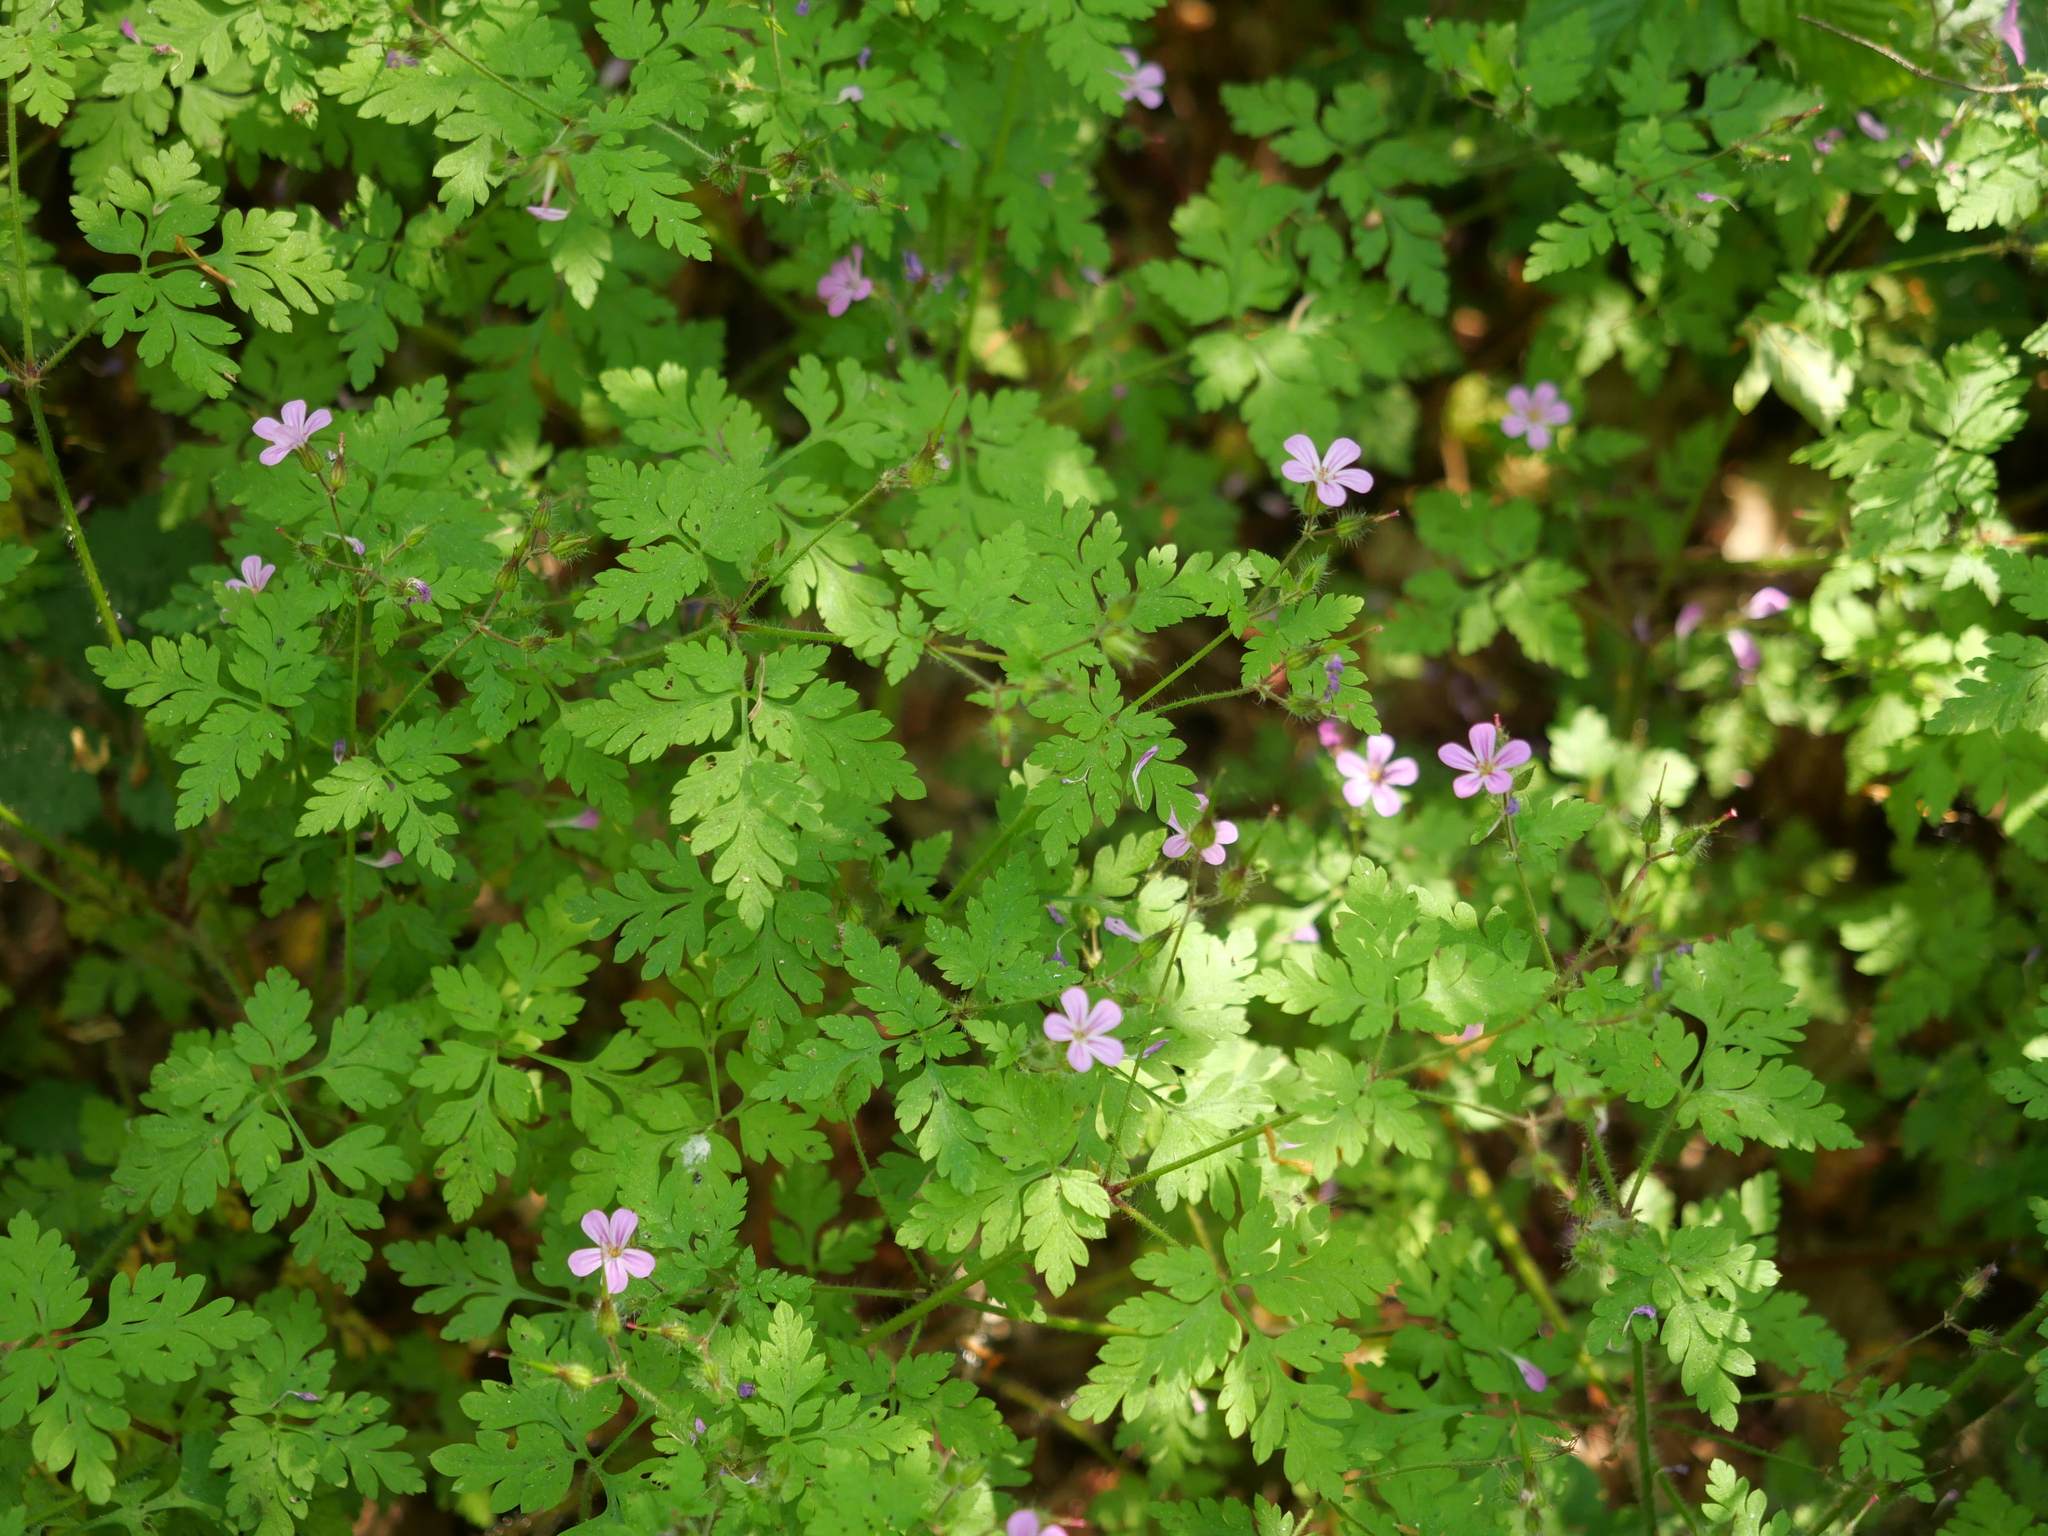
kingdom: Plantae
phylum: Tracheophyta
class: Magnoliopsida
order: Geraniales
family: Geraniaceae
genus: Geranium
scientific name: Geranium robertianum
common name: Herb-robert
